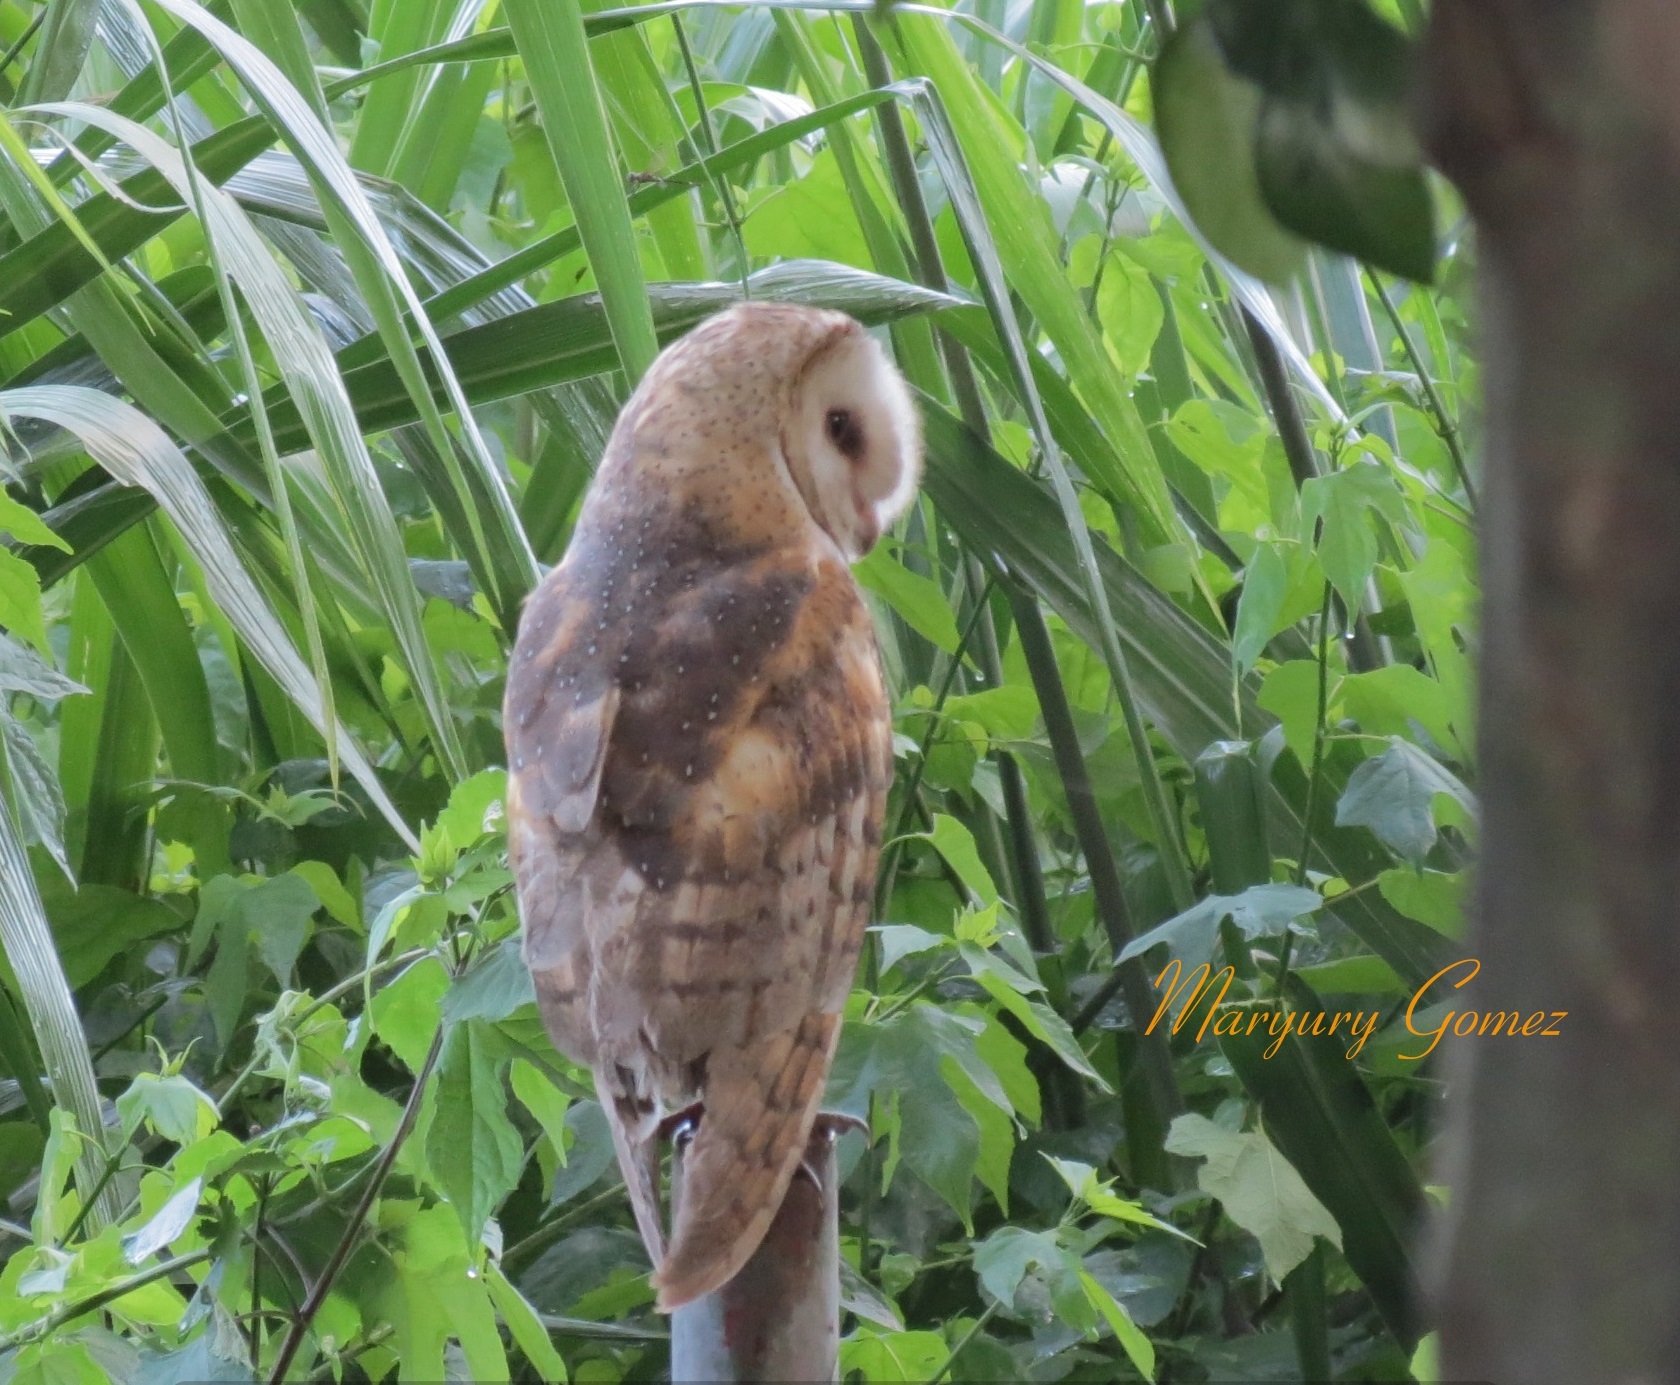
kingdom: Animalia
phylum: Chordata
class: Aves
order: Strigiformes
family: Tytonidae
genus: Tyto
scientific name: Tyto alba
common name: Barn owl
